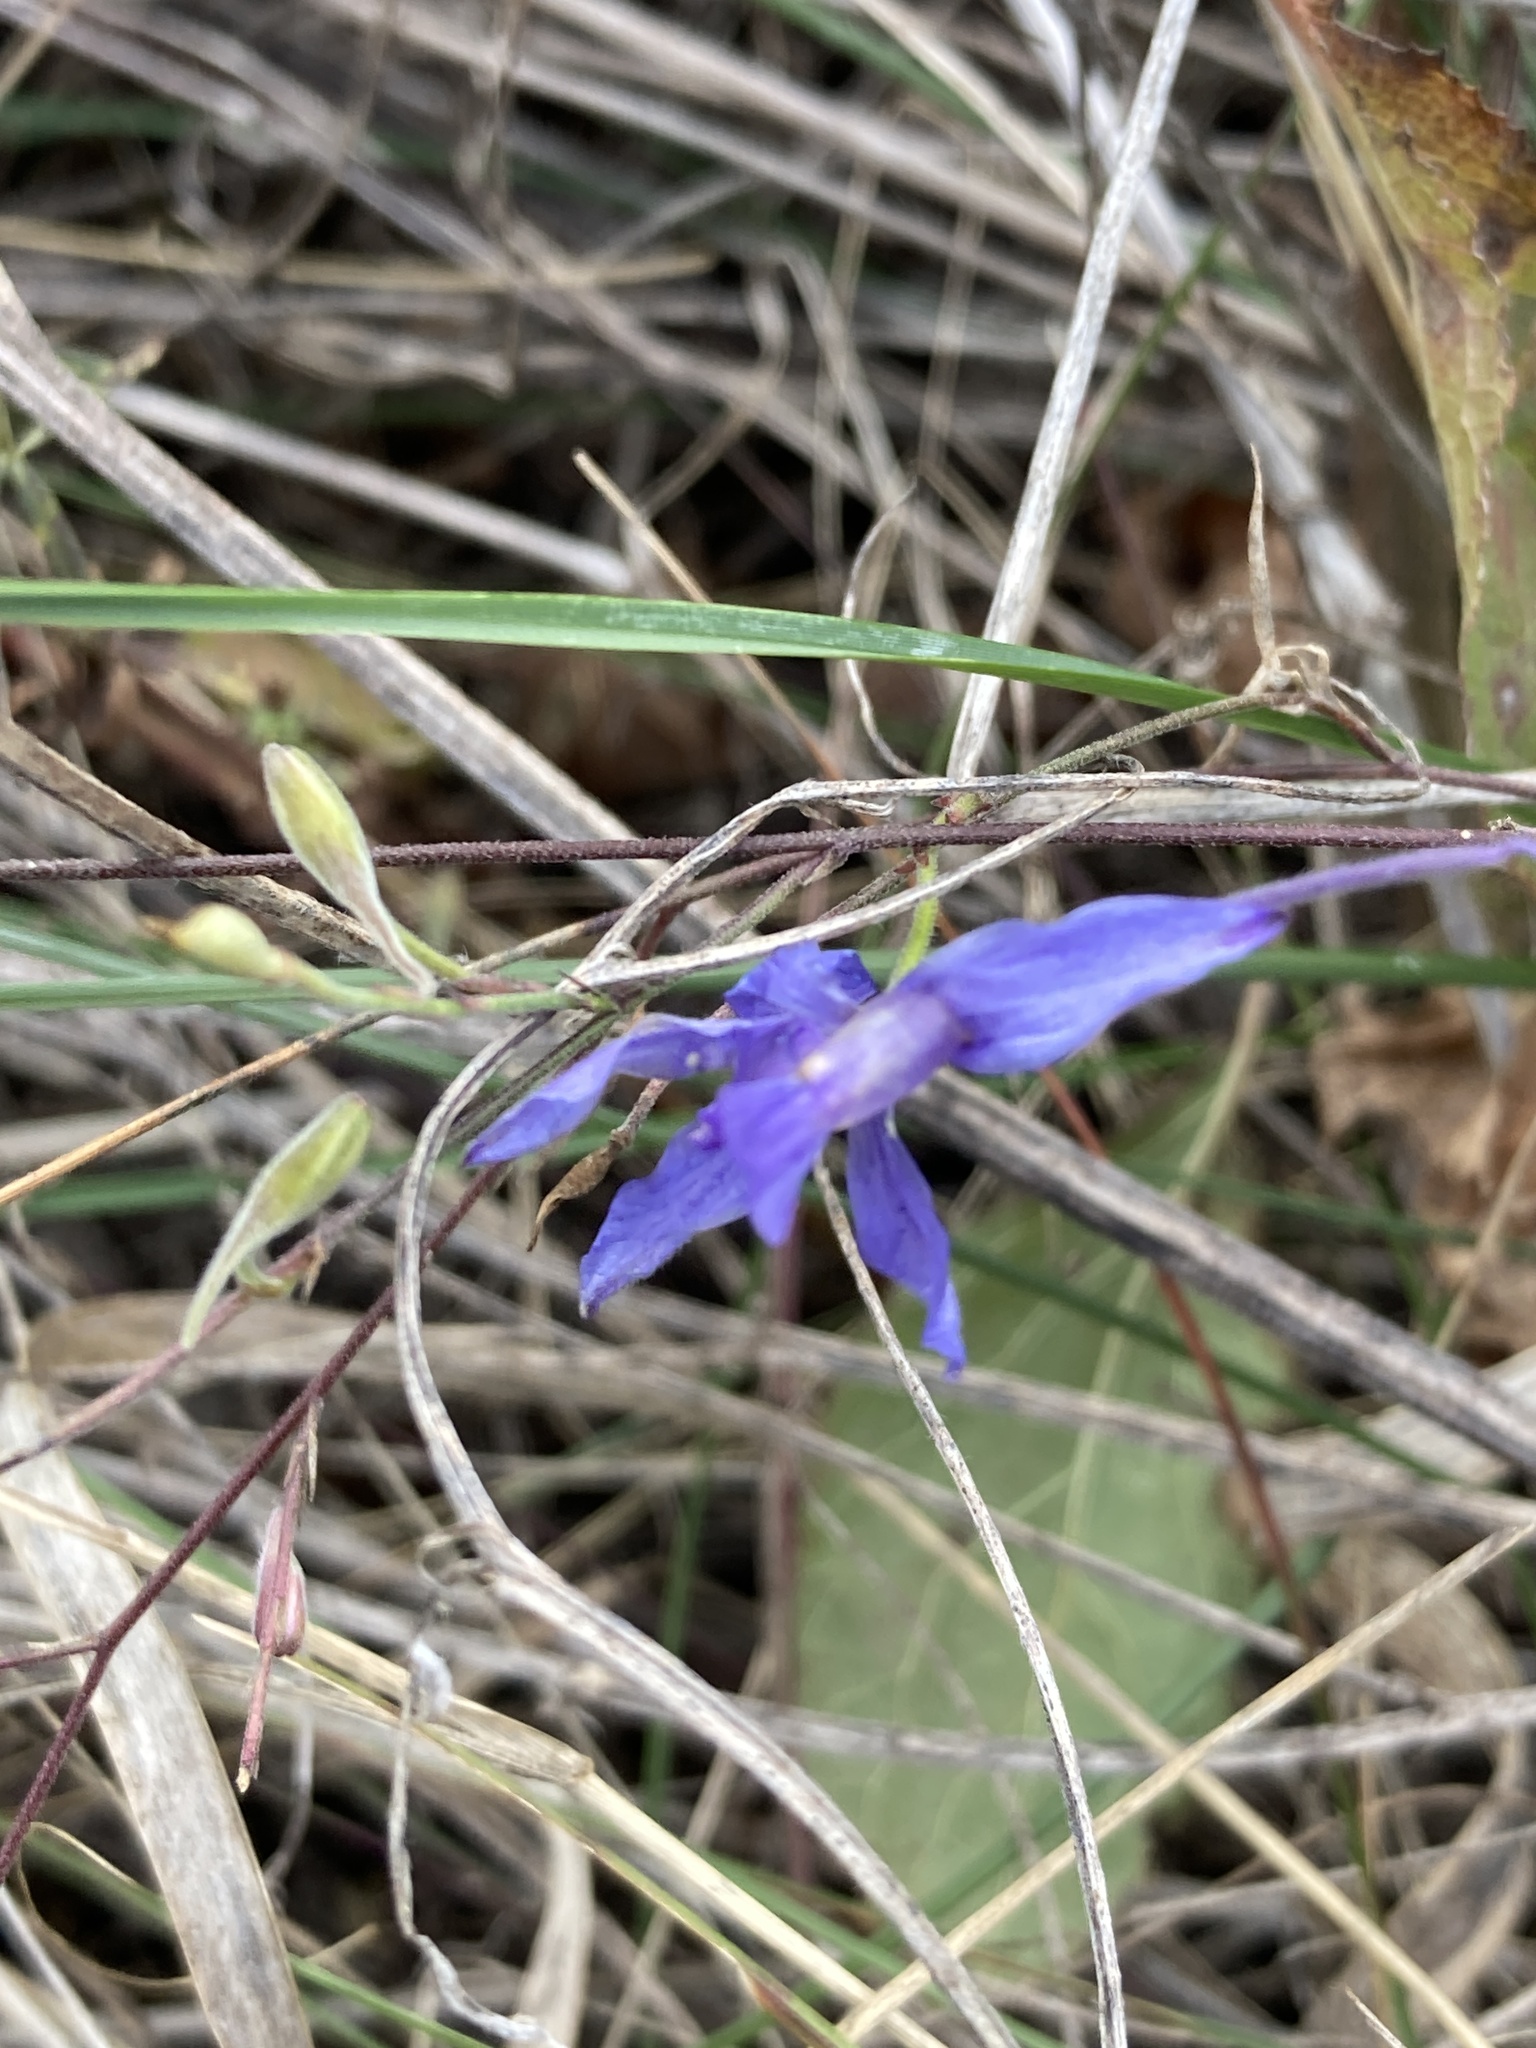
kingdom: Plantae
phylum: Tracheophyta
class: Magnoliopsida
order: Ranunculales
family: Ranunculaceae
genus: Delphinium
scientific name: Delphinium consolida
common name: Branching larkspur
